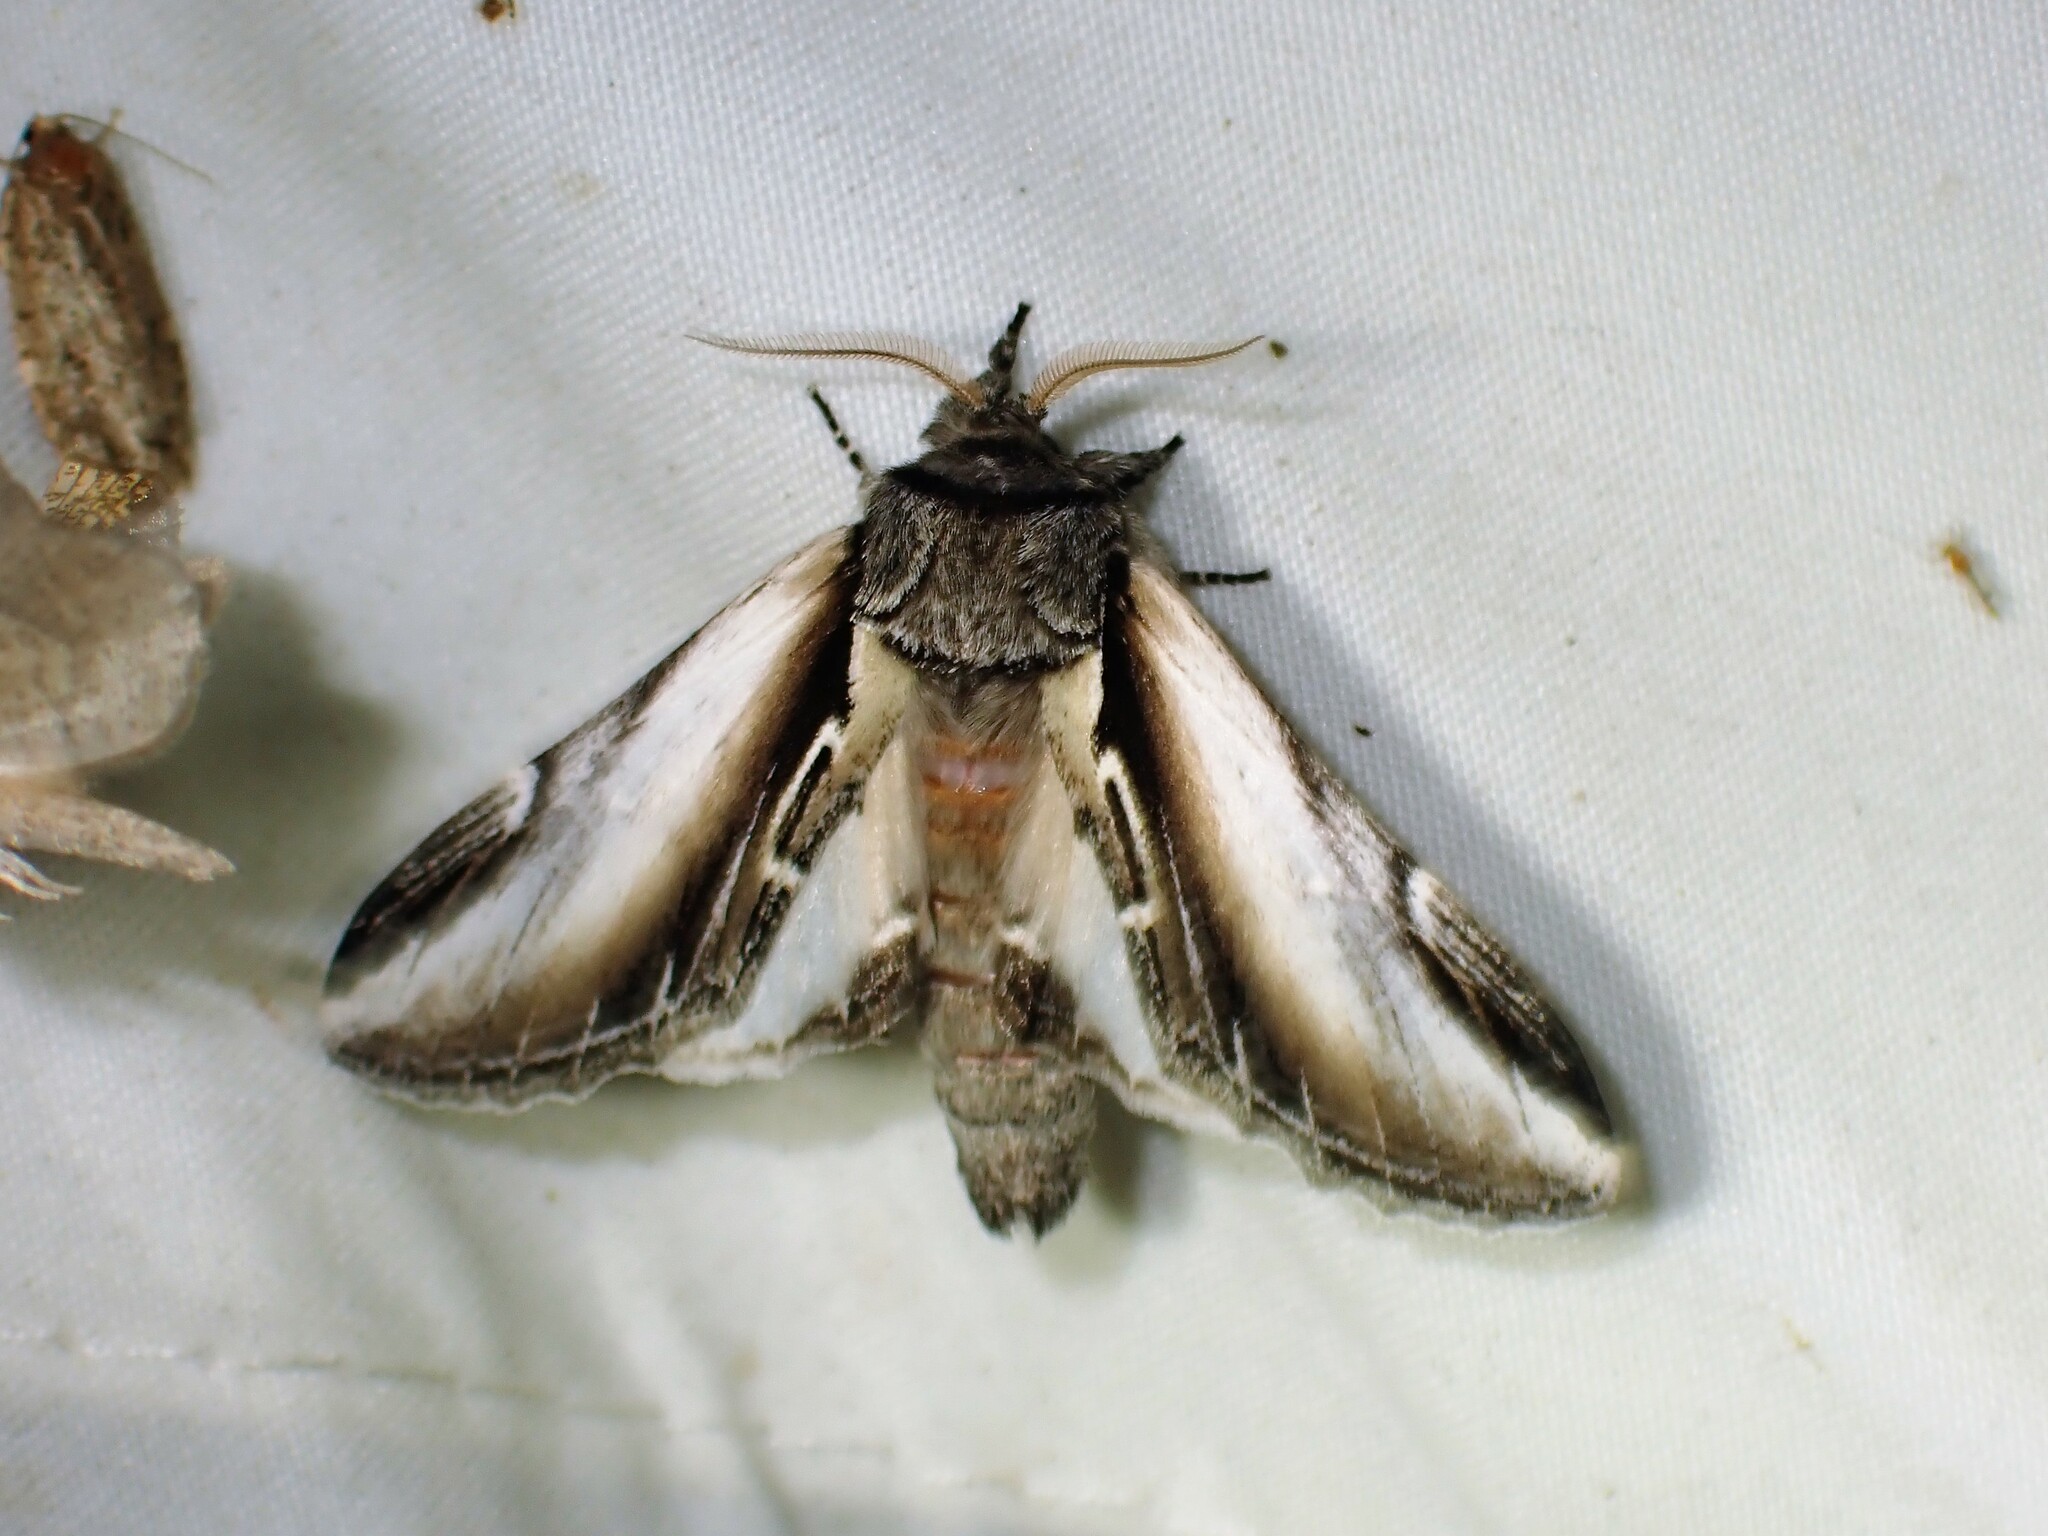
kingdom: Animalia
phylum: Arthropoda
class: Insecta
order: Lepidoptera
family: Notodontidae
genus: Pheosia
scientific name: Pheosia rimosa
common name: Black-rimmed prominent
